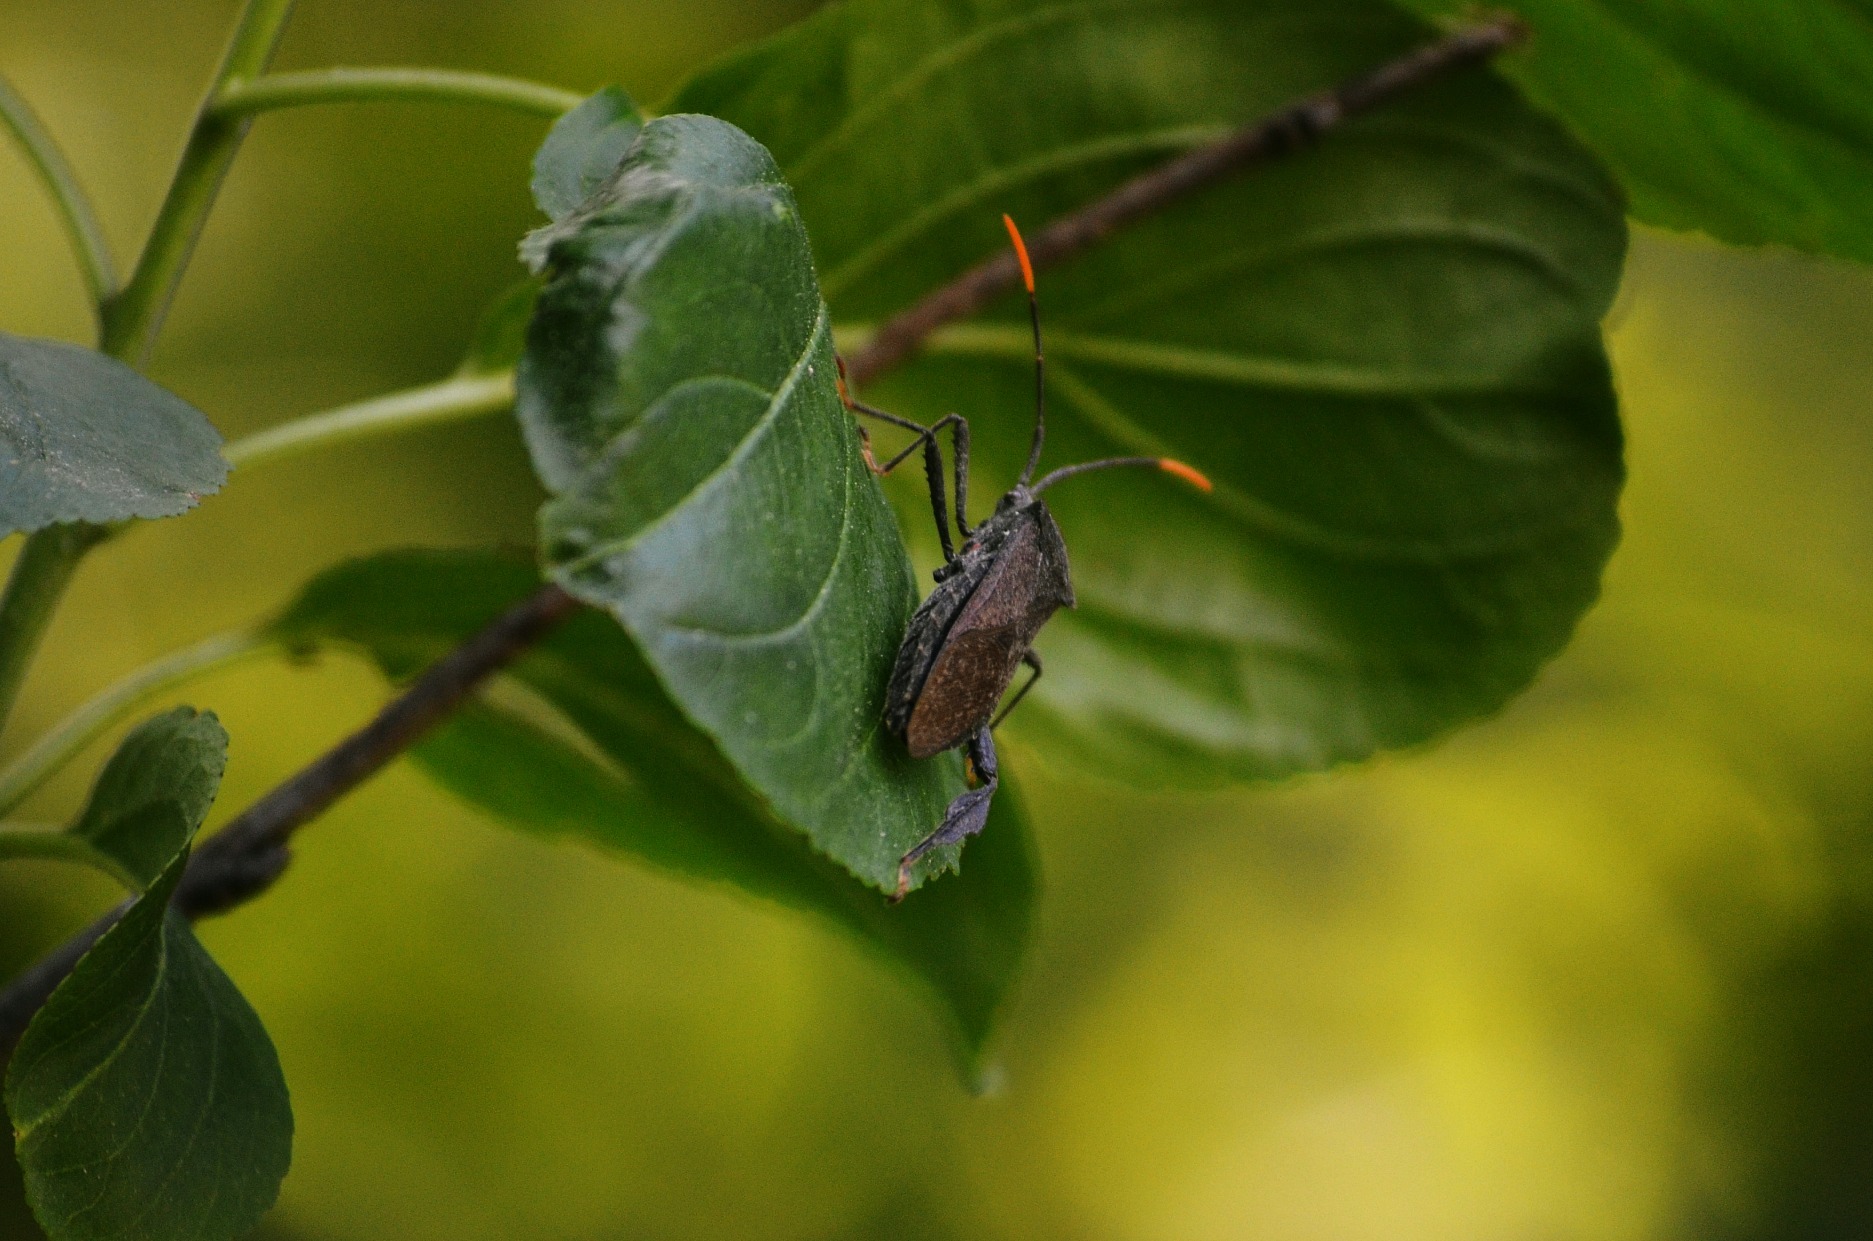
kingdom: Animalia
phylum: Arthropoda
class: Insecta
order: Hemiptera
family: Coreidae
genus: Acanthocephala
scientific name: Acanthocephala terminalis
